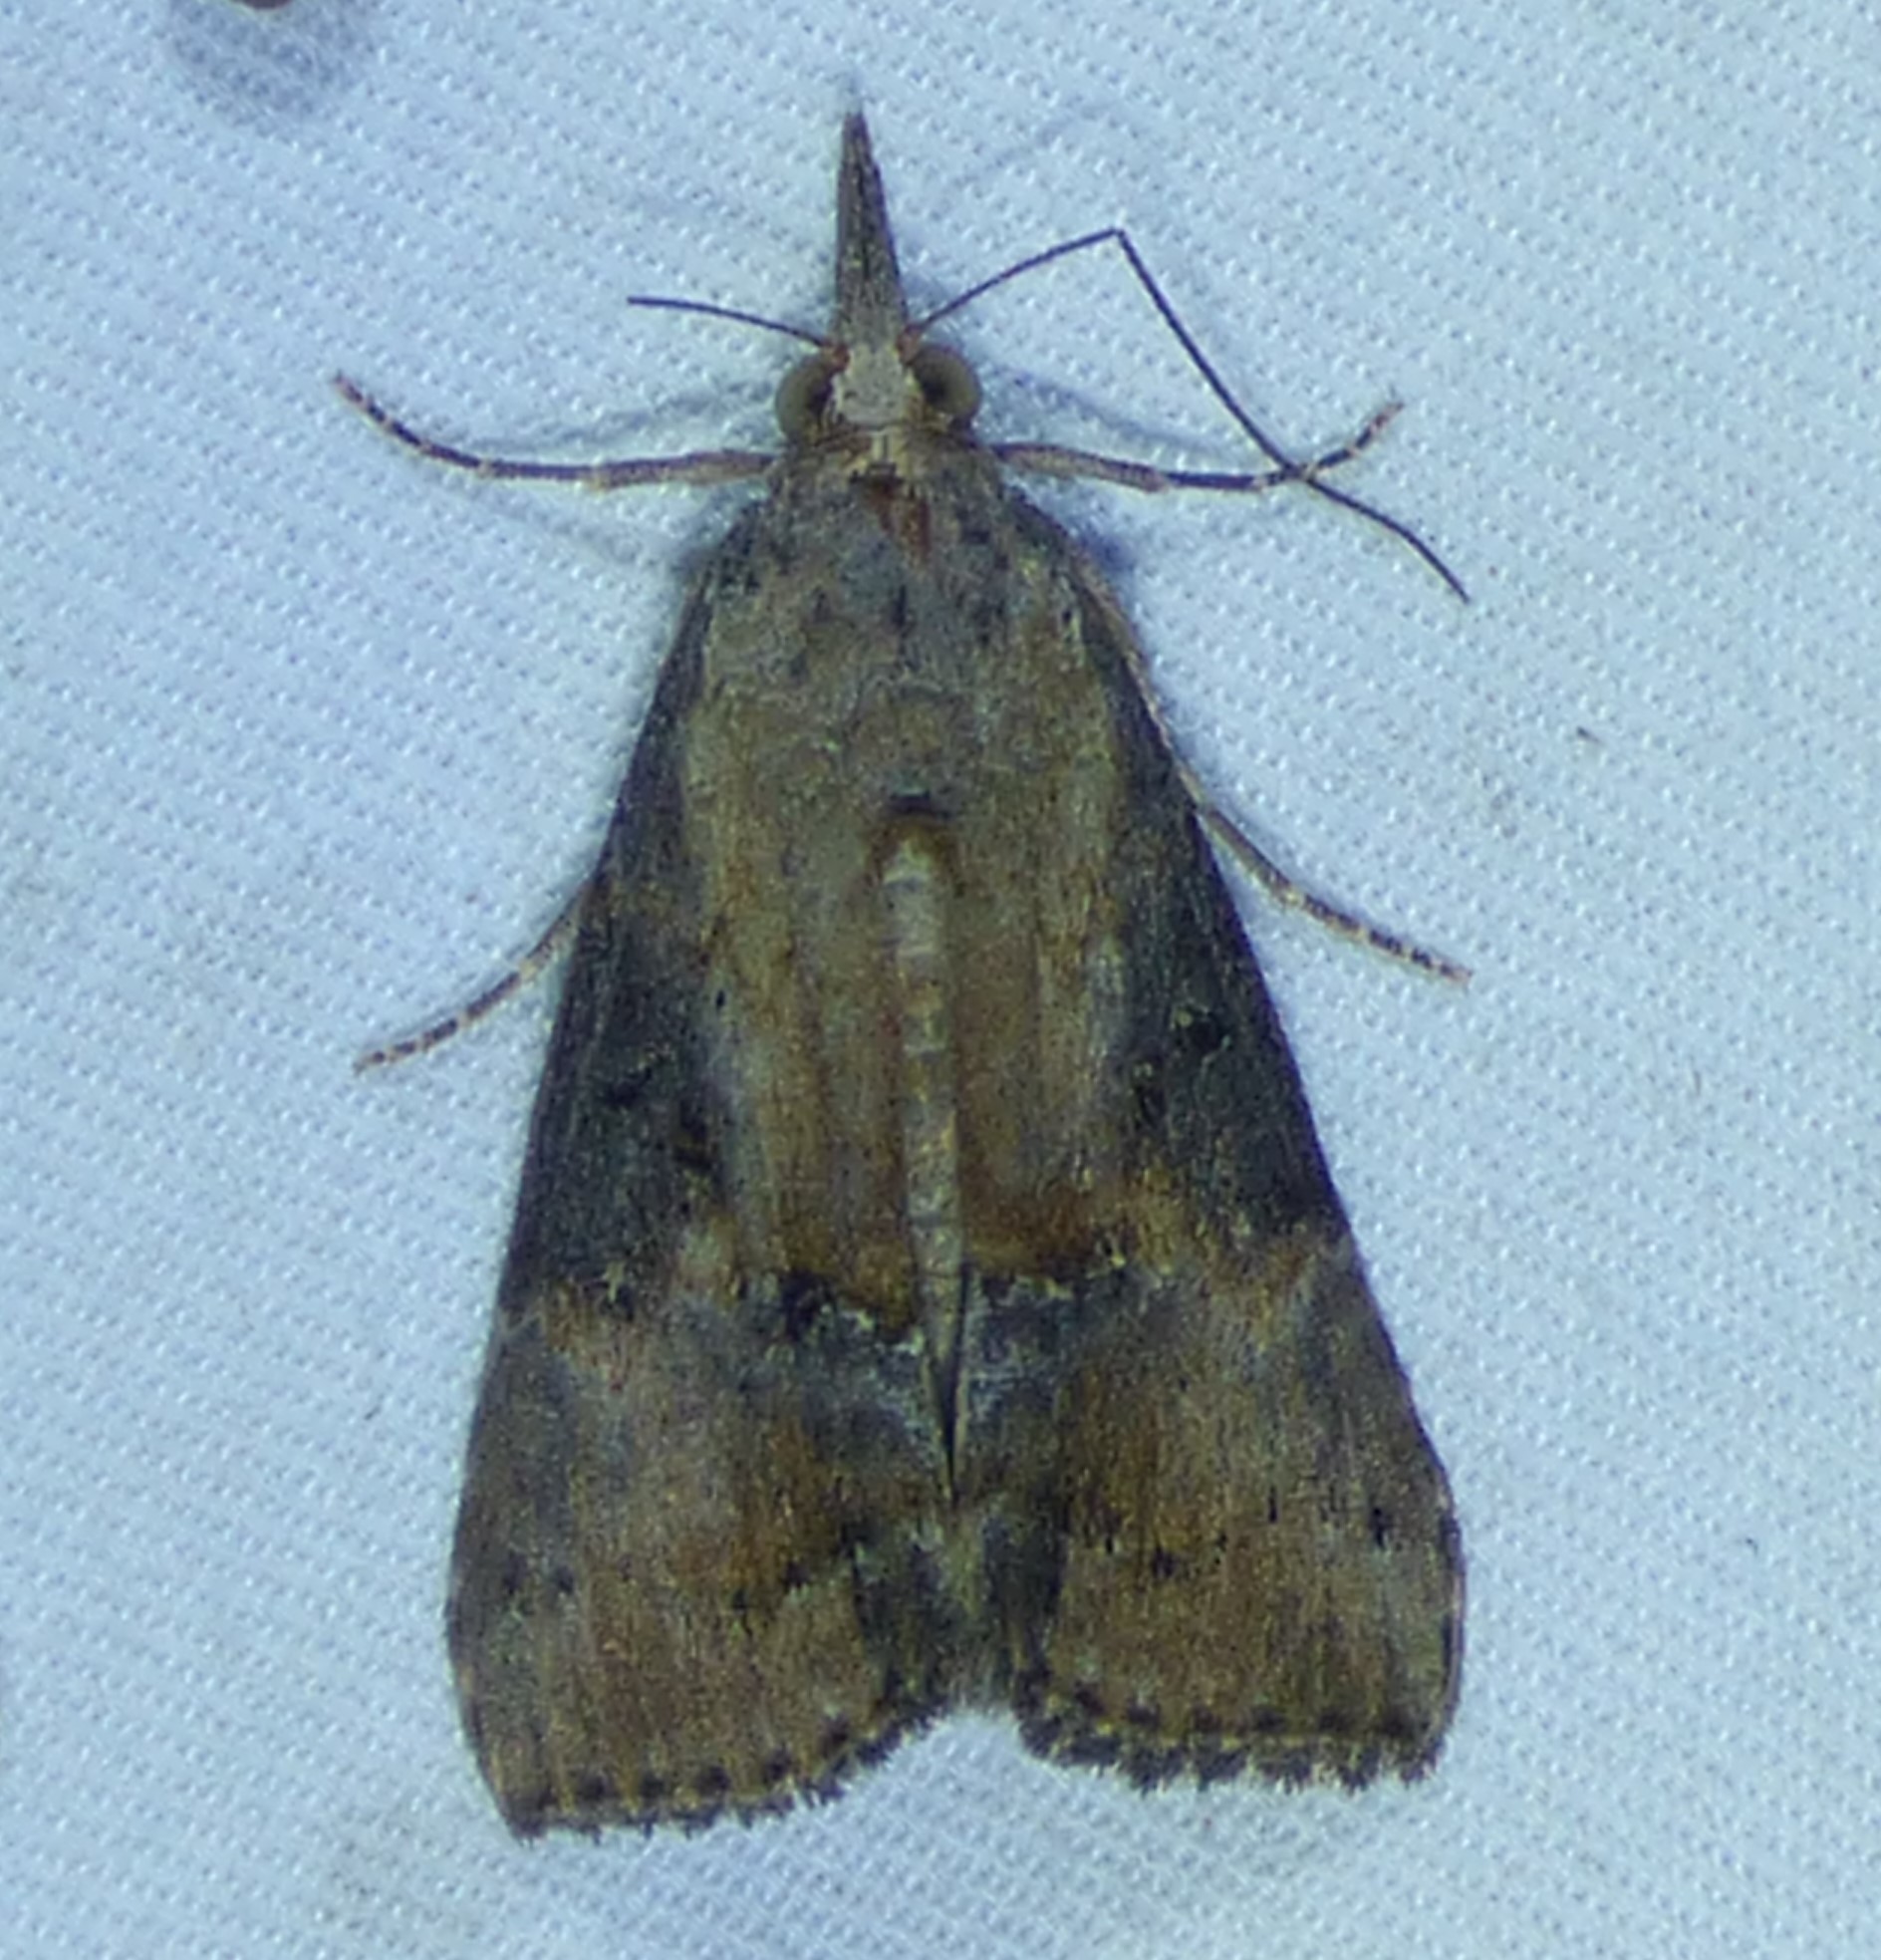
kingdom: Animalia
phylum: Arthropoda
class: Insecta
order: Lepidoptera
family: Erebidae
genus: Hypena
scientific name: Hypena scabra
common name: Green cloverworm
